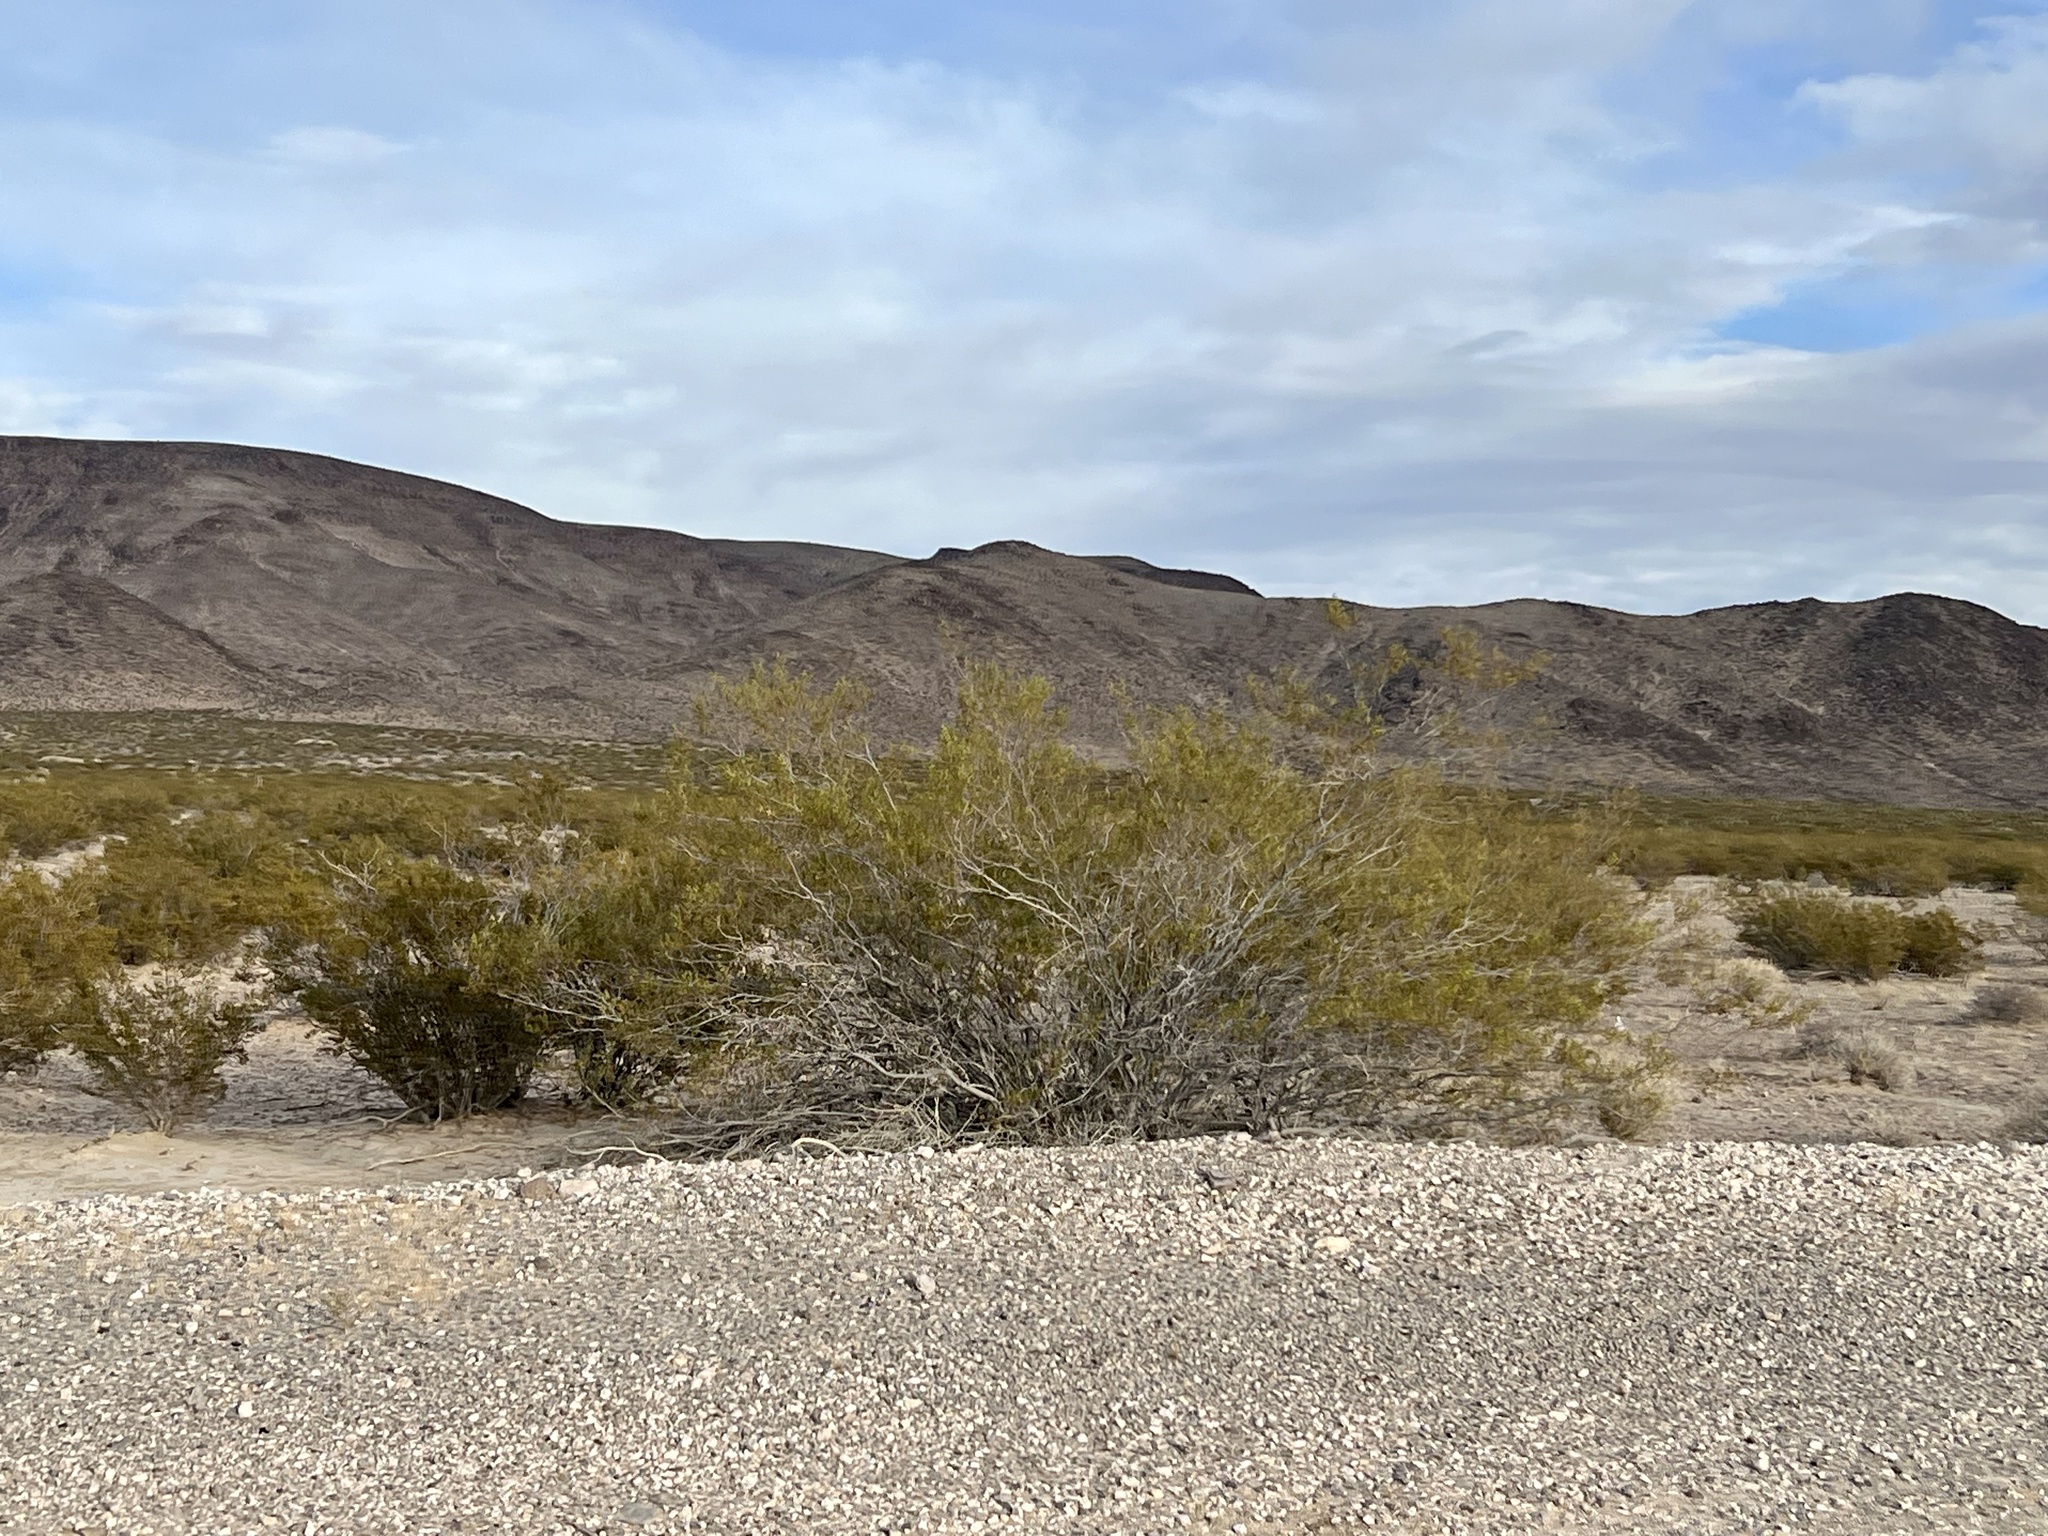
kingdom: Plantae
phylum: Tracheophyta
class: Magnoliopsida
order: Zygophyllales
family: Zygophyllaceae
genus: Larrea
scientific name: Larrea tridentata
